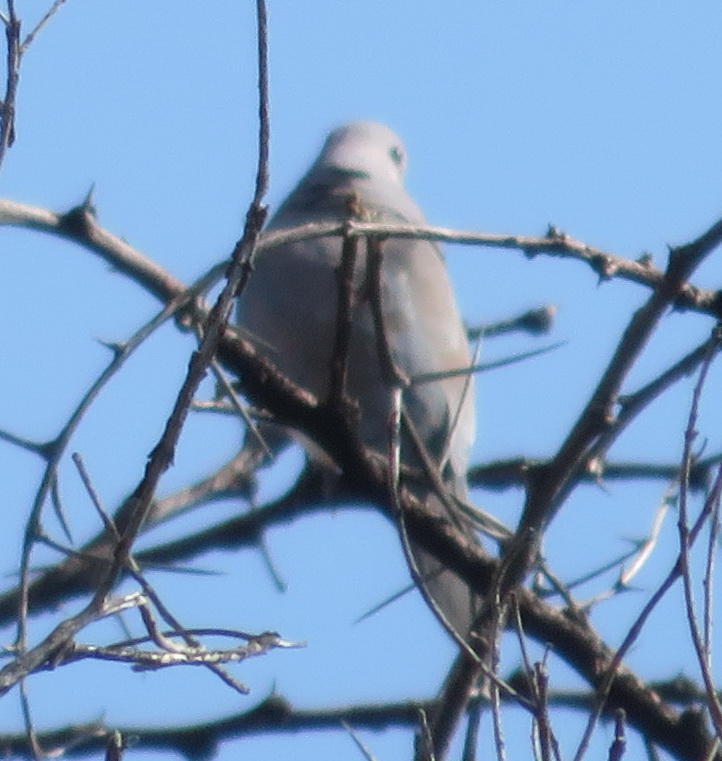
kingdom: Animalia
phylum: Chordata
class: Aves
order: Columbiformes
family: Columbidae
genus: Streptopelia
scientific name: Streptopelia capicola
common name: Ring-necked dove
